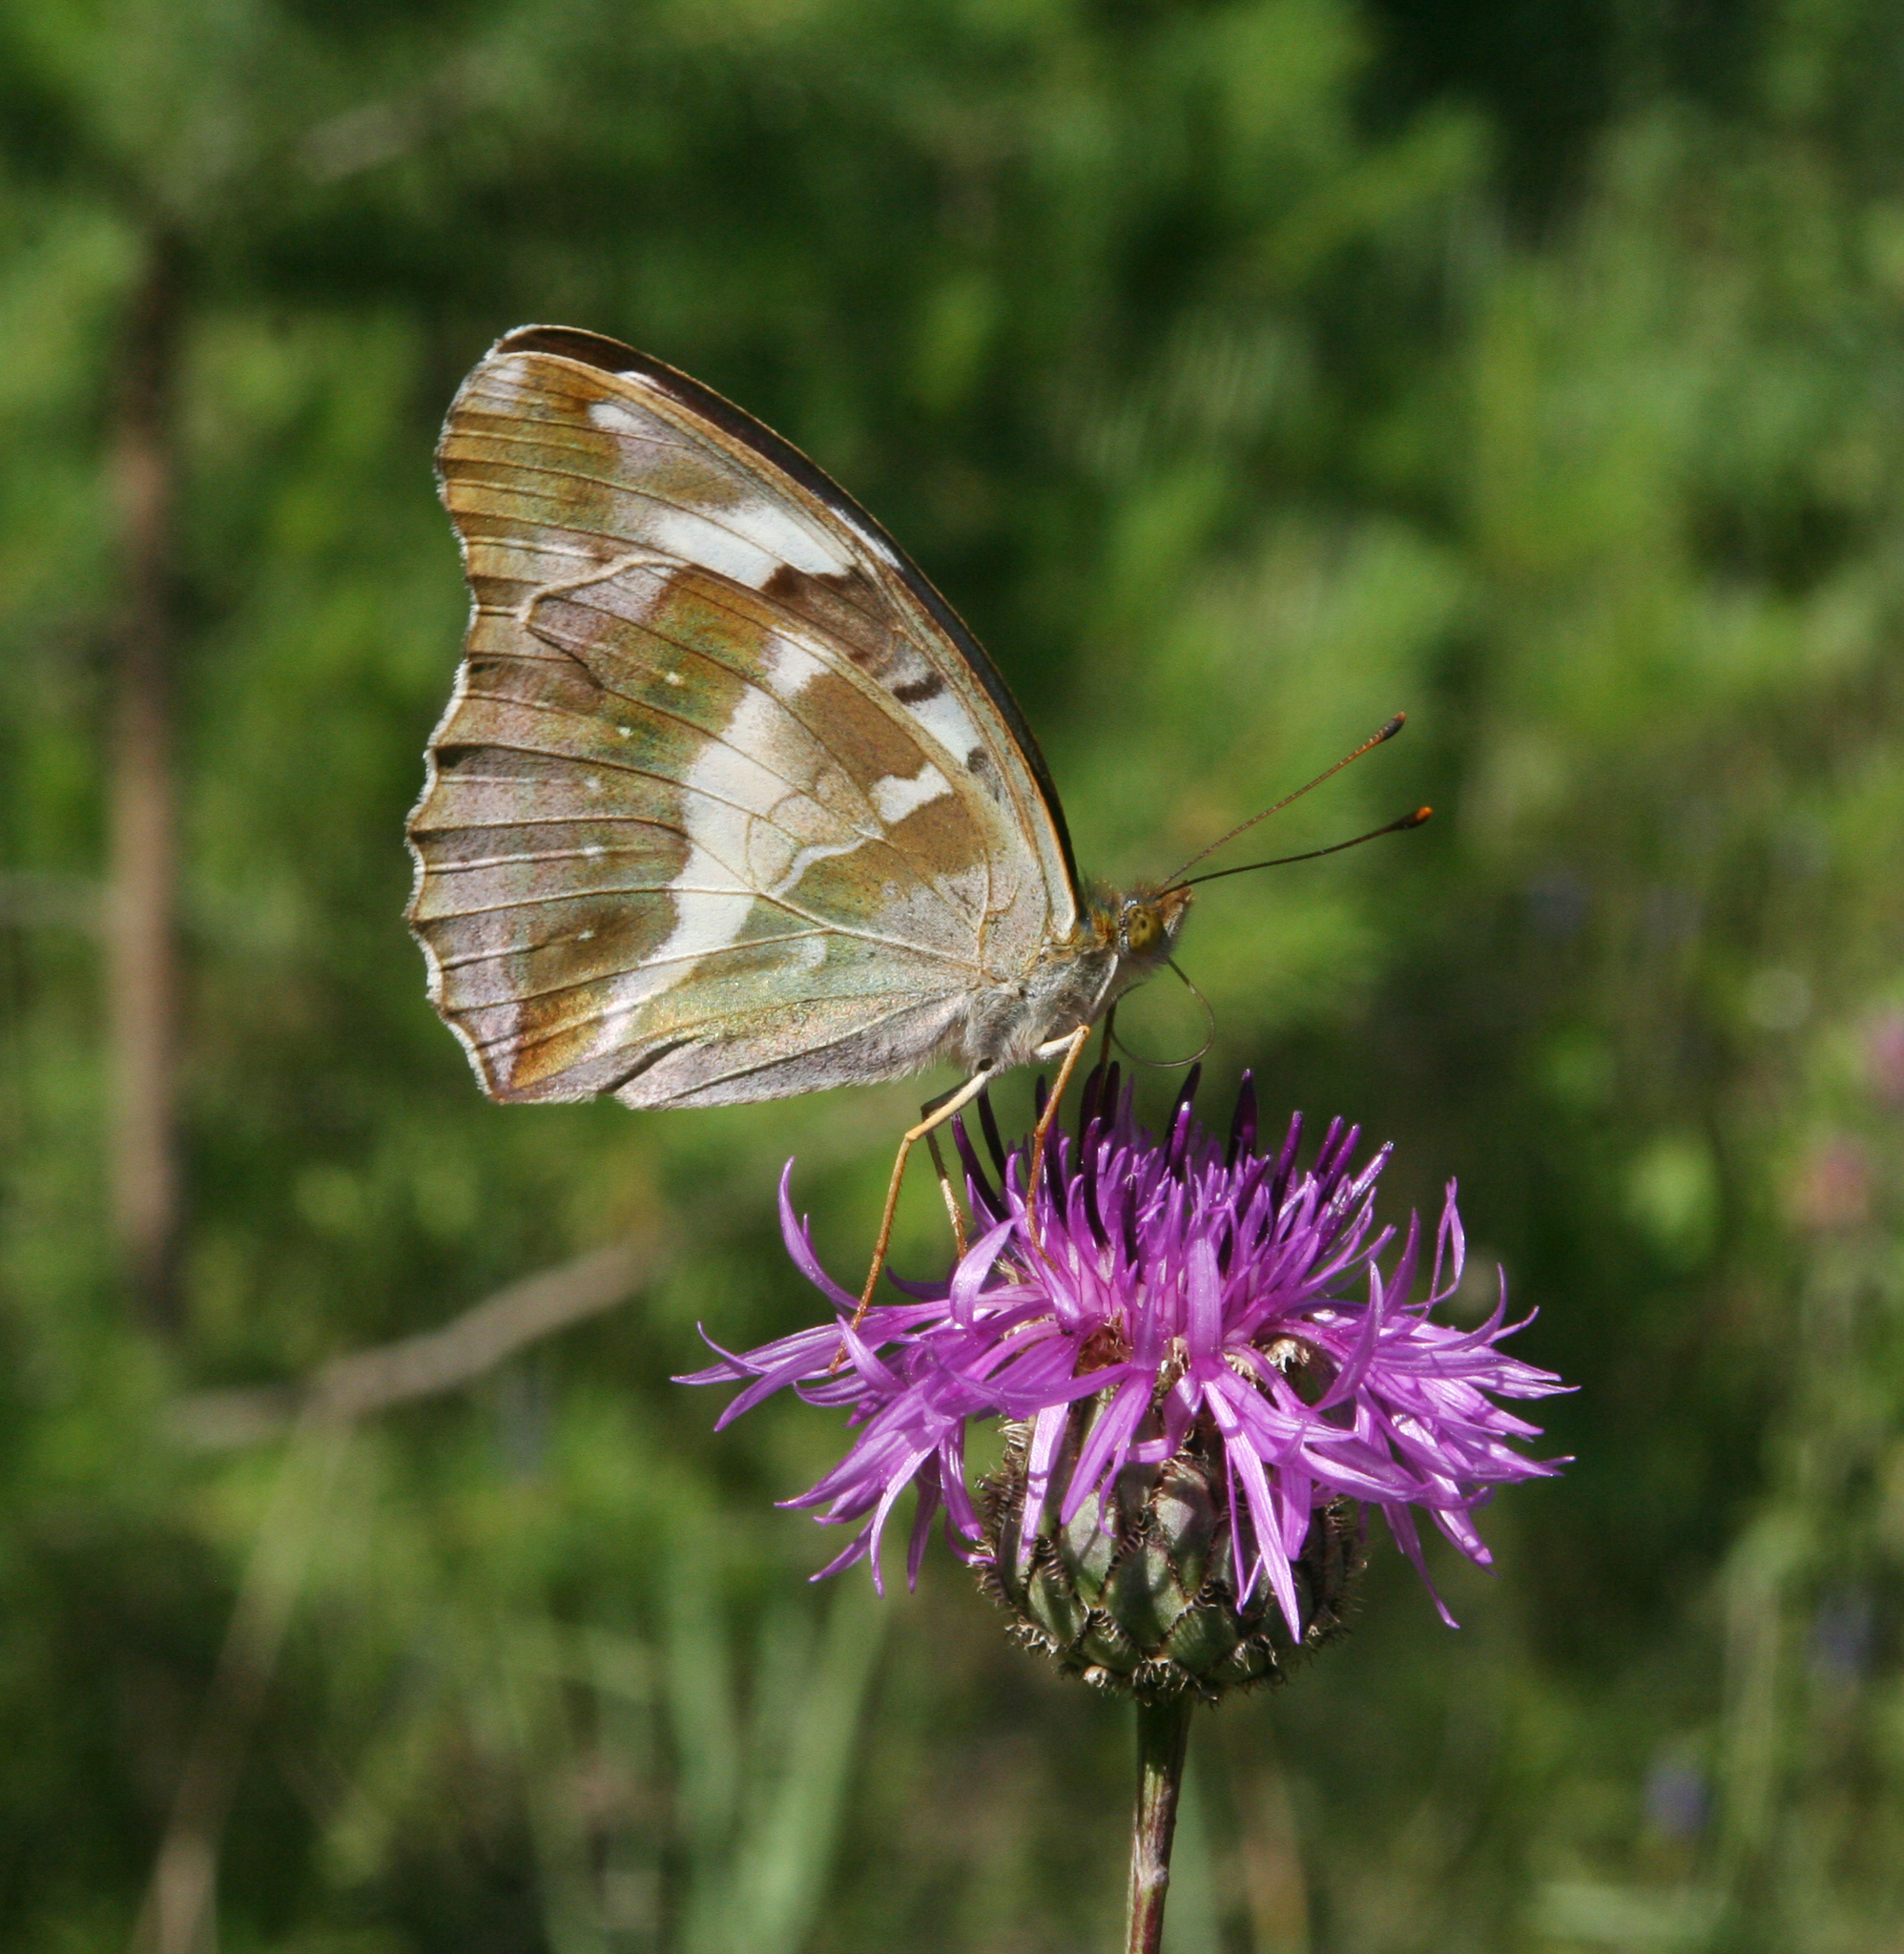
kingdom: Plantae
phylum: Tracheophyta
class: Magnoliopsida
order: Asterales
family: Asteraceae
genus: Centaurea
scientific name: Centaurea scabiosa
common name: Greater knapweed
